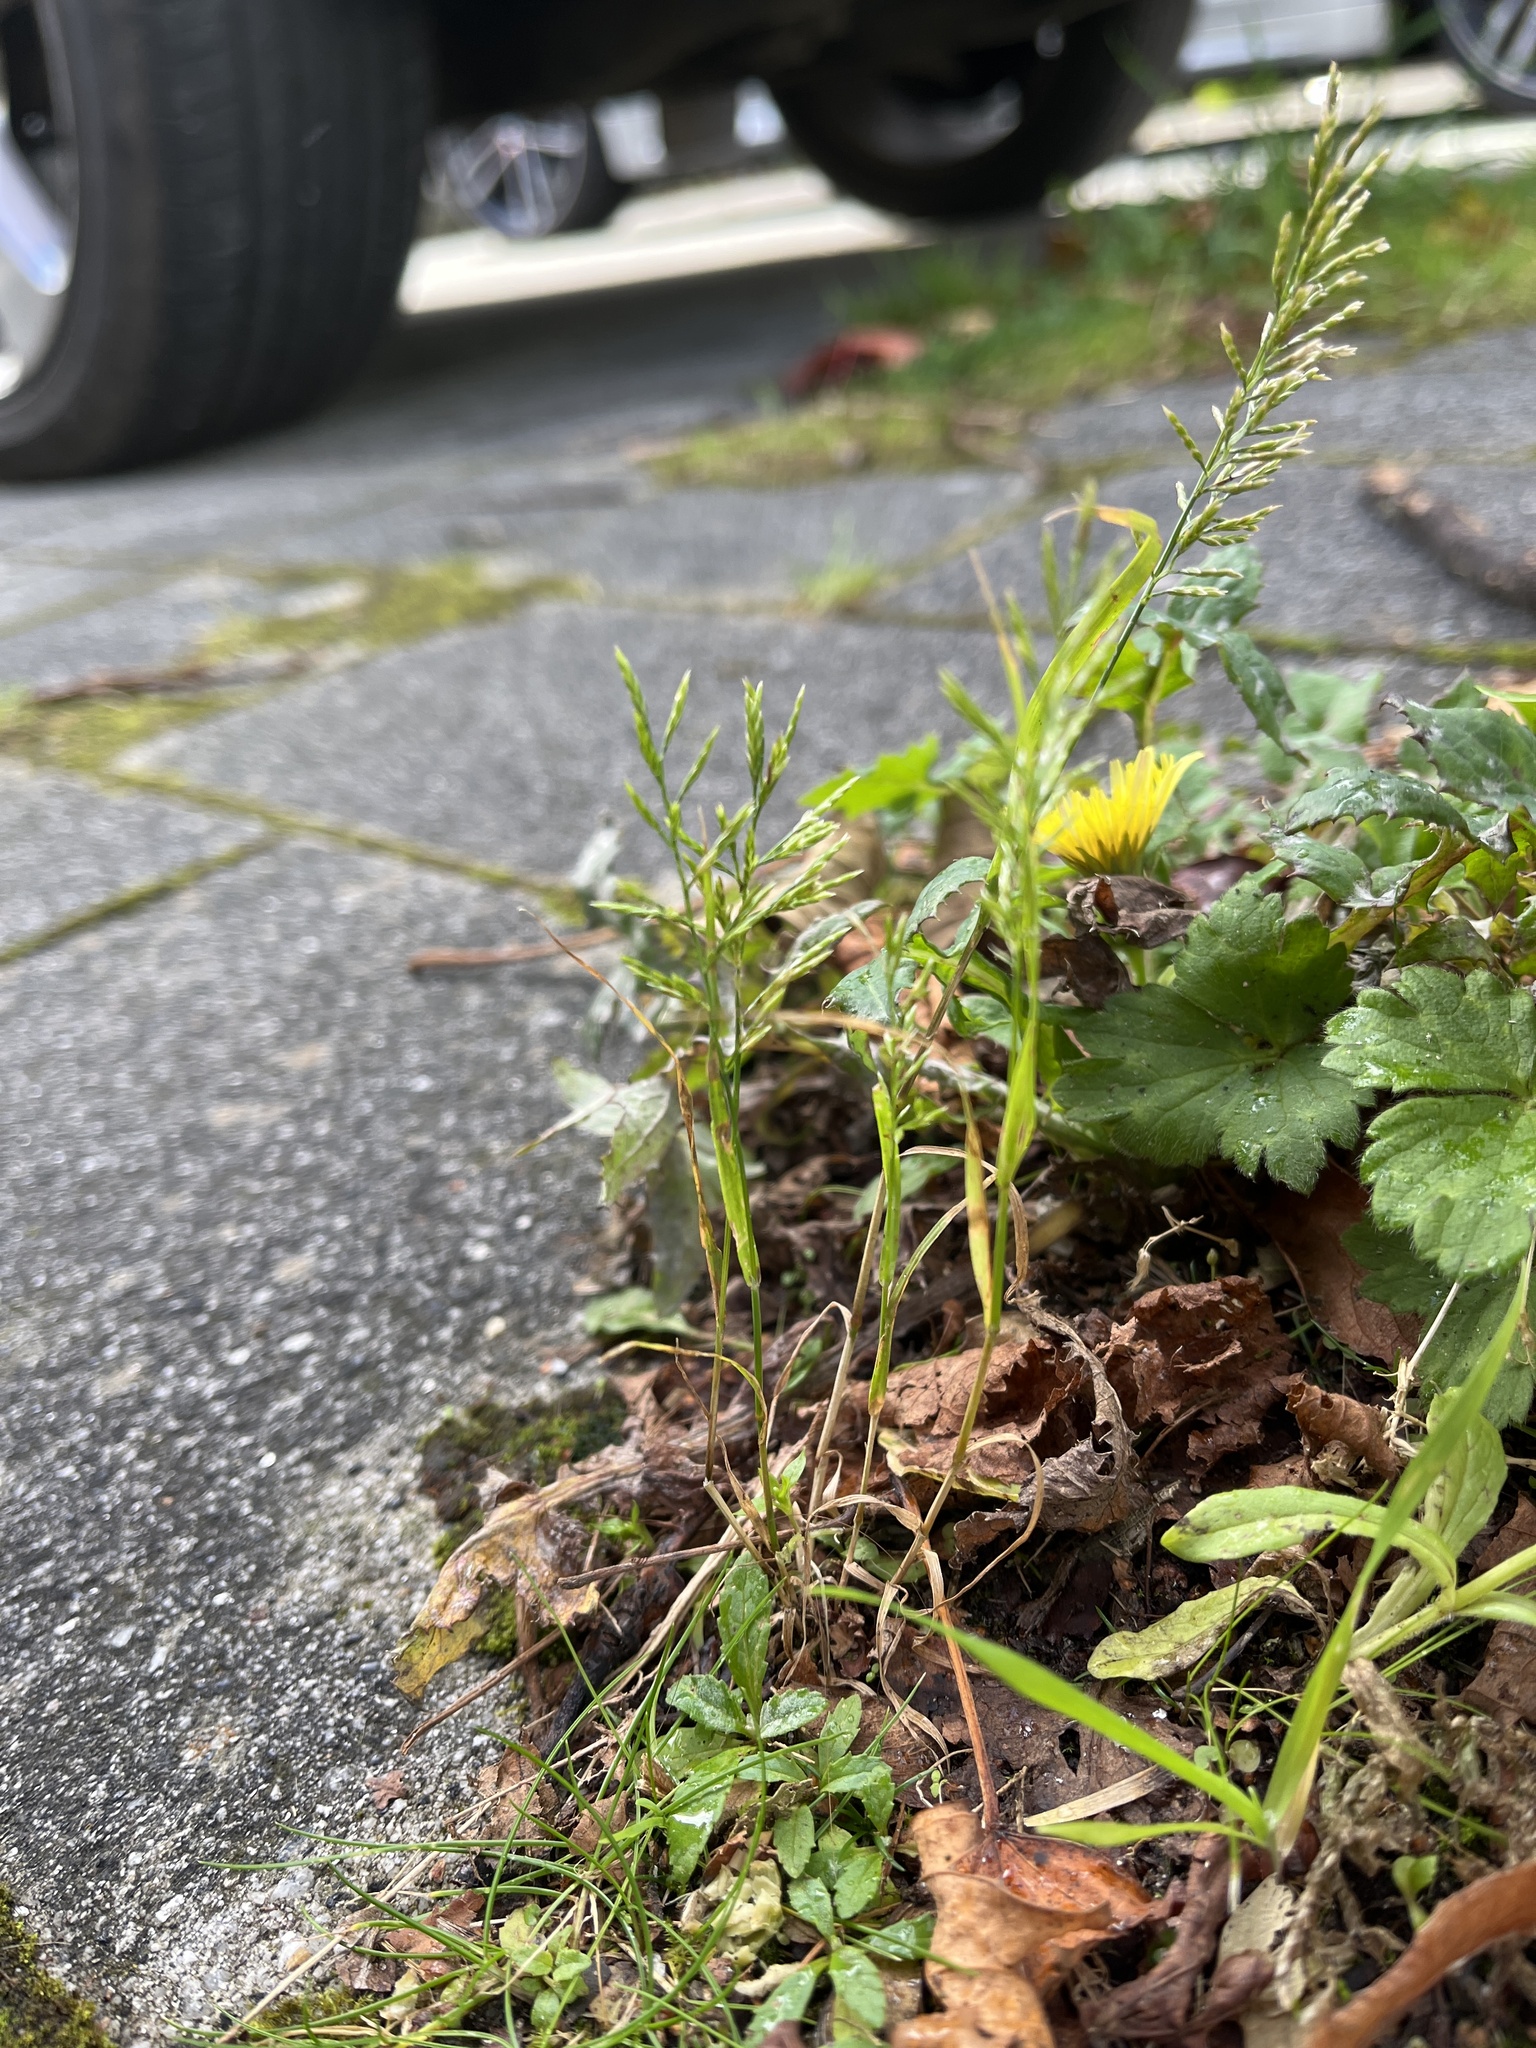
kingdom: Plantae
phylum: Tracheophyta
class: Liliopsida
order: Poales
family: Poaceae
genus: Catapodium
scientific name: Catapodium rigidum
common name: Fern-grass
